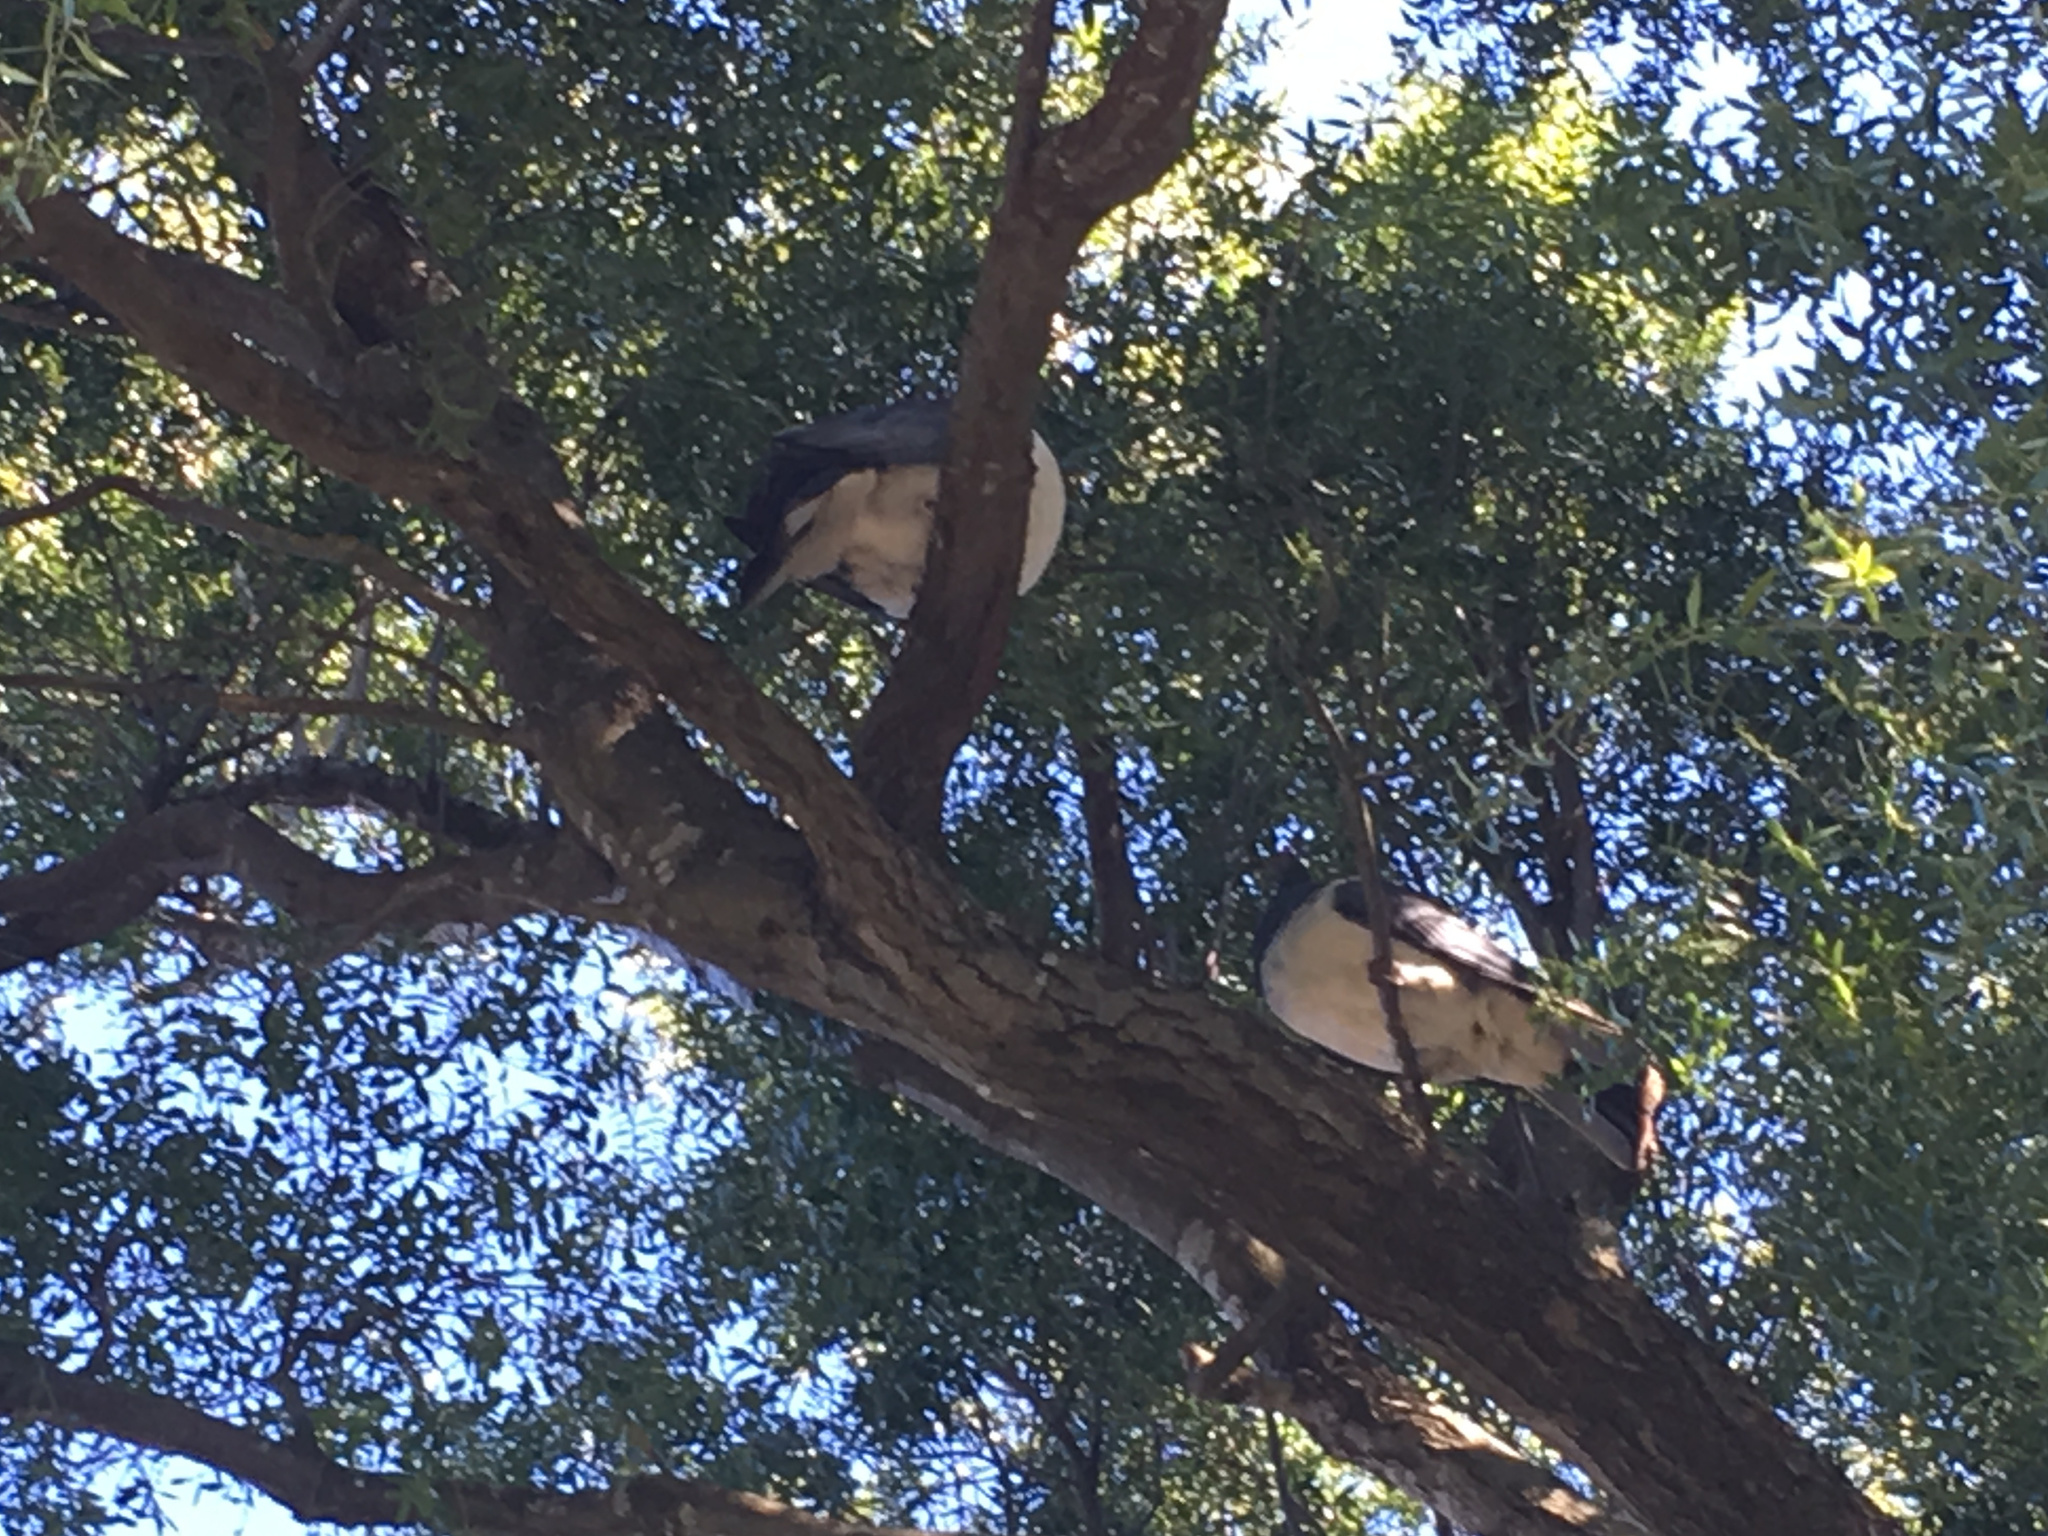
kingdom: Animalia
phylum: Chordata
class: Aves
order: Columbiformes
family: Columbidae
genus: Hemiphaga
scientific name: Hemiphaga novaeseelandiae
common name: New zealand pigeon
